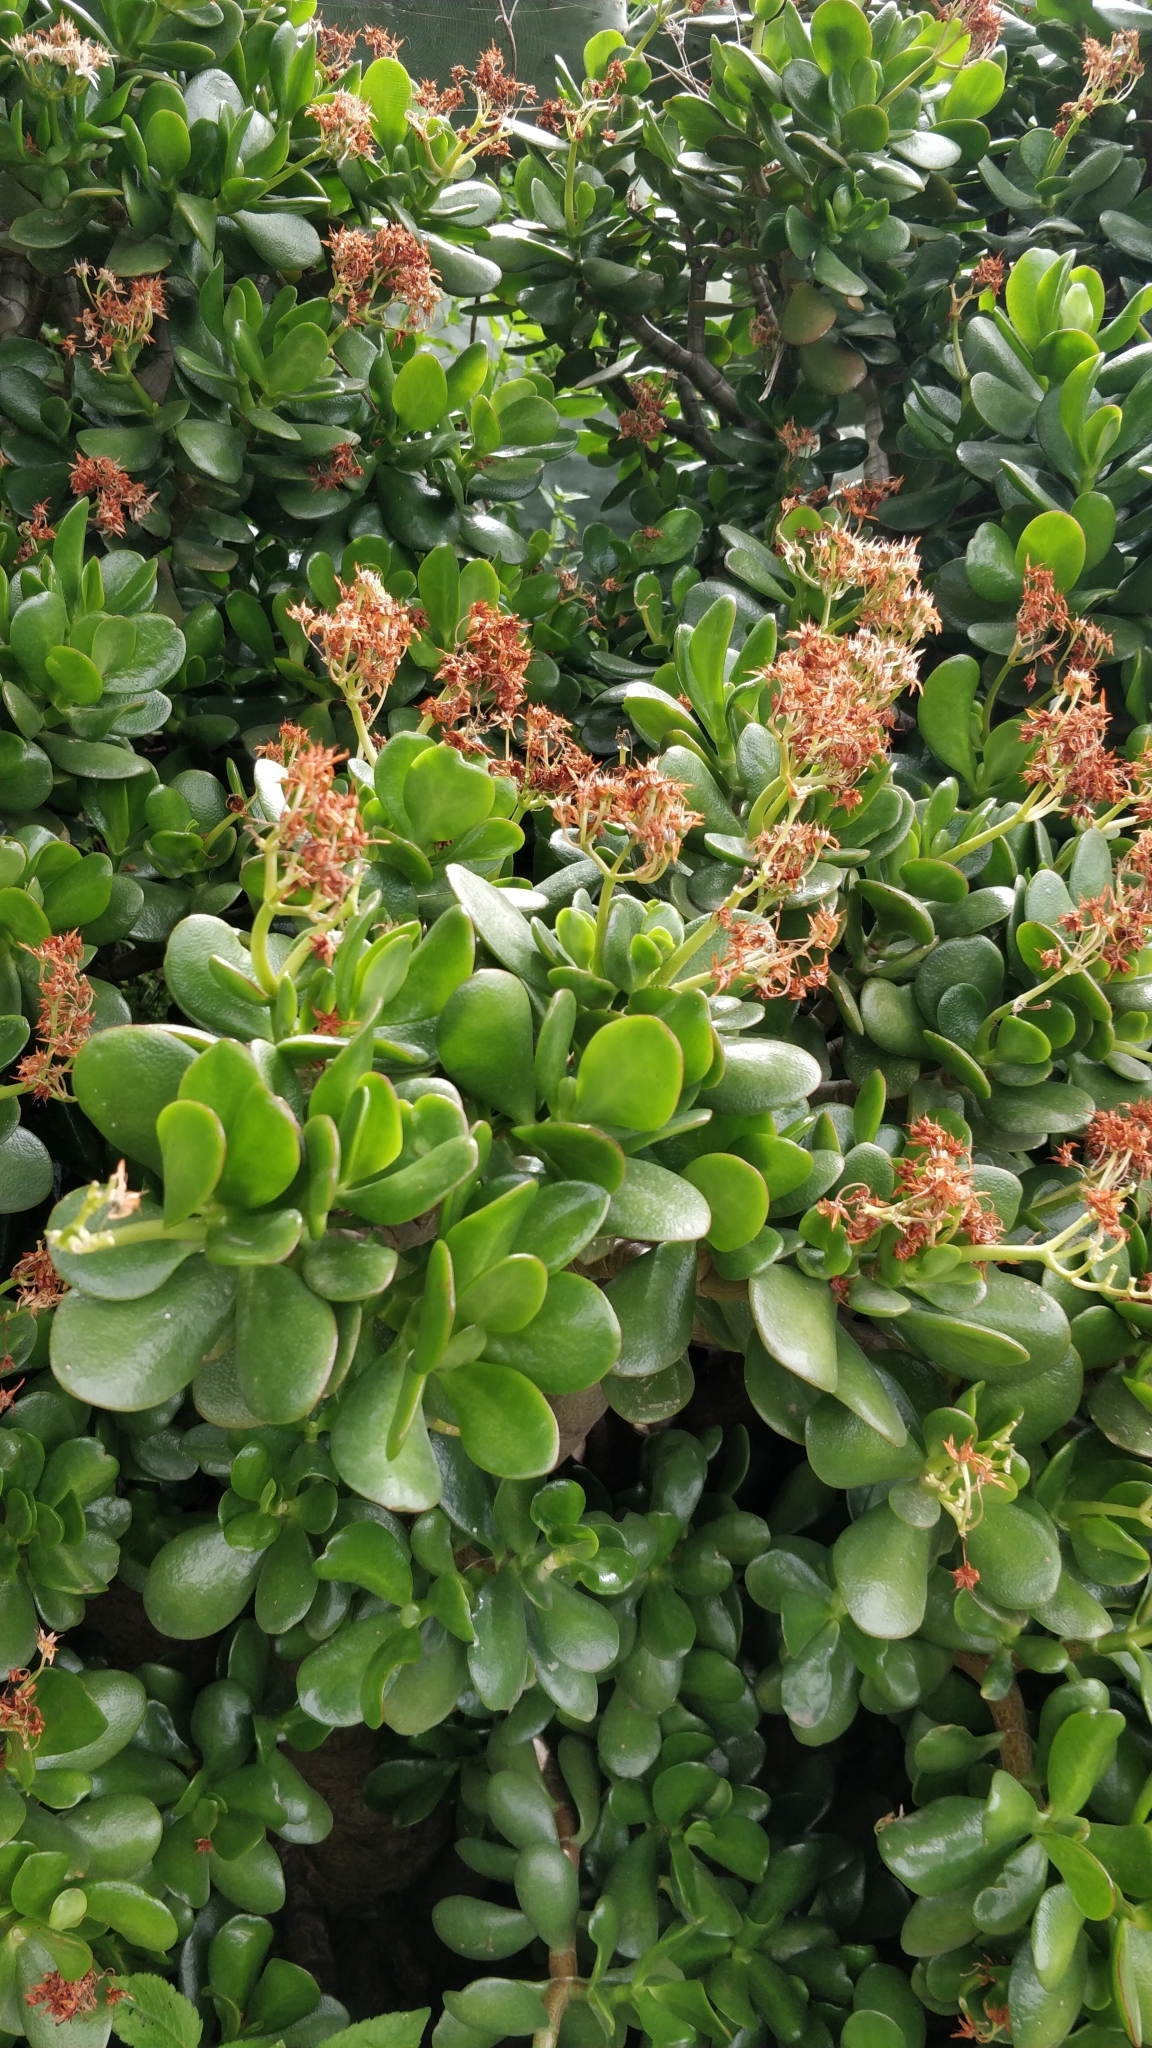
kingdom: Plantae
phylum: Tracheophyta
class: Magnoliopsida
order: Saxifragales
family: Crassulaceae
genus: Crassula
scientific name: Crassula ovata
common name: Jade plant
